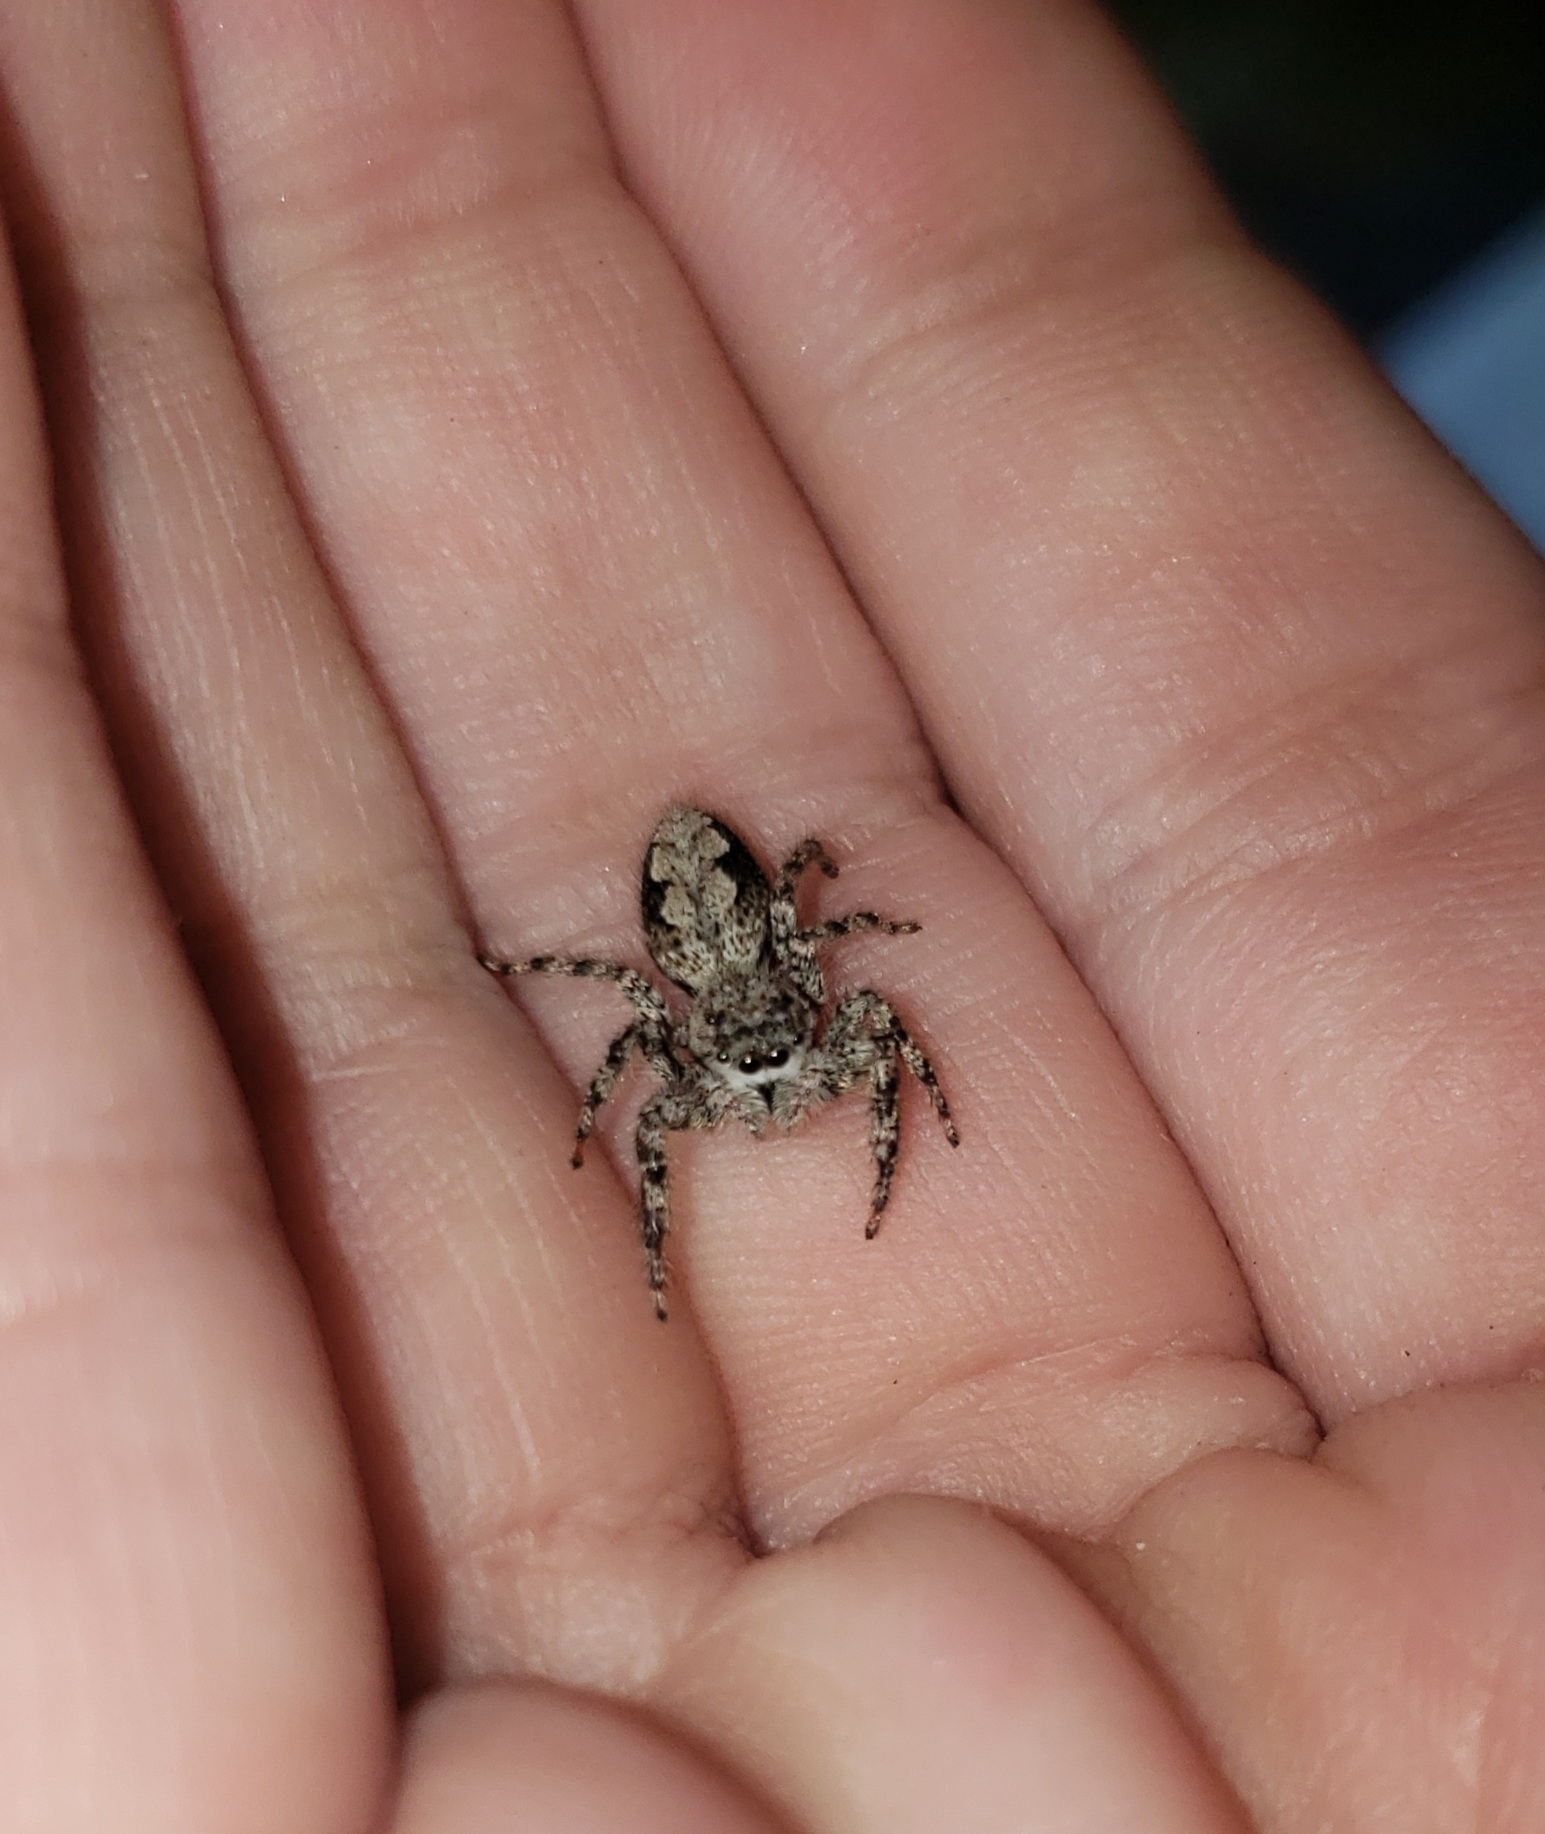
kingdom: Animalia
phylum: Arthropoda
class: Arachnida
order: Araneae
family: Salticidae
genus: Platycryptus
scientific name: Platycryptus undatus
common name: Tan jumping spider
